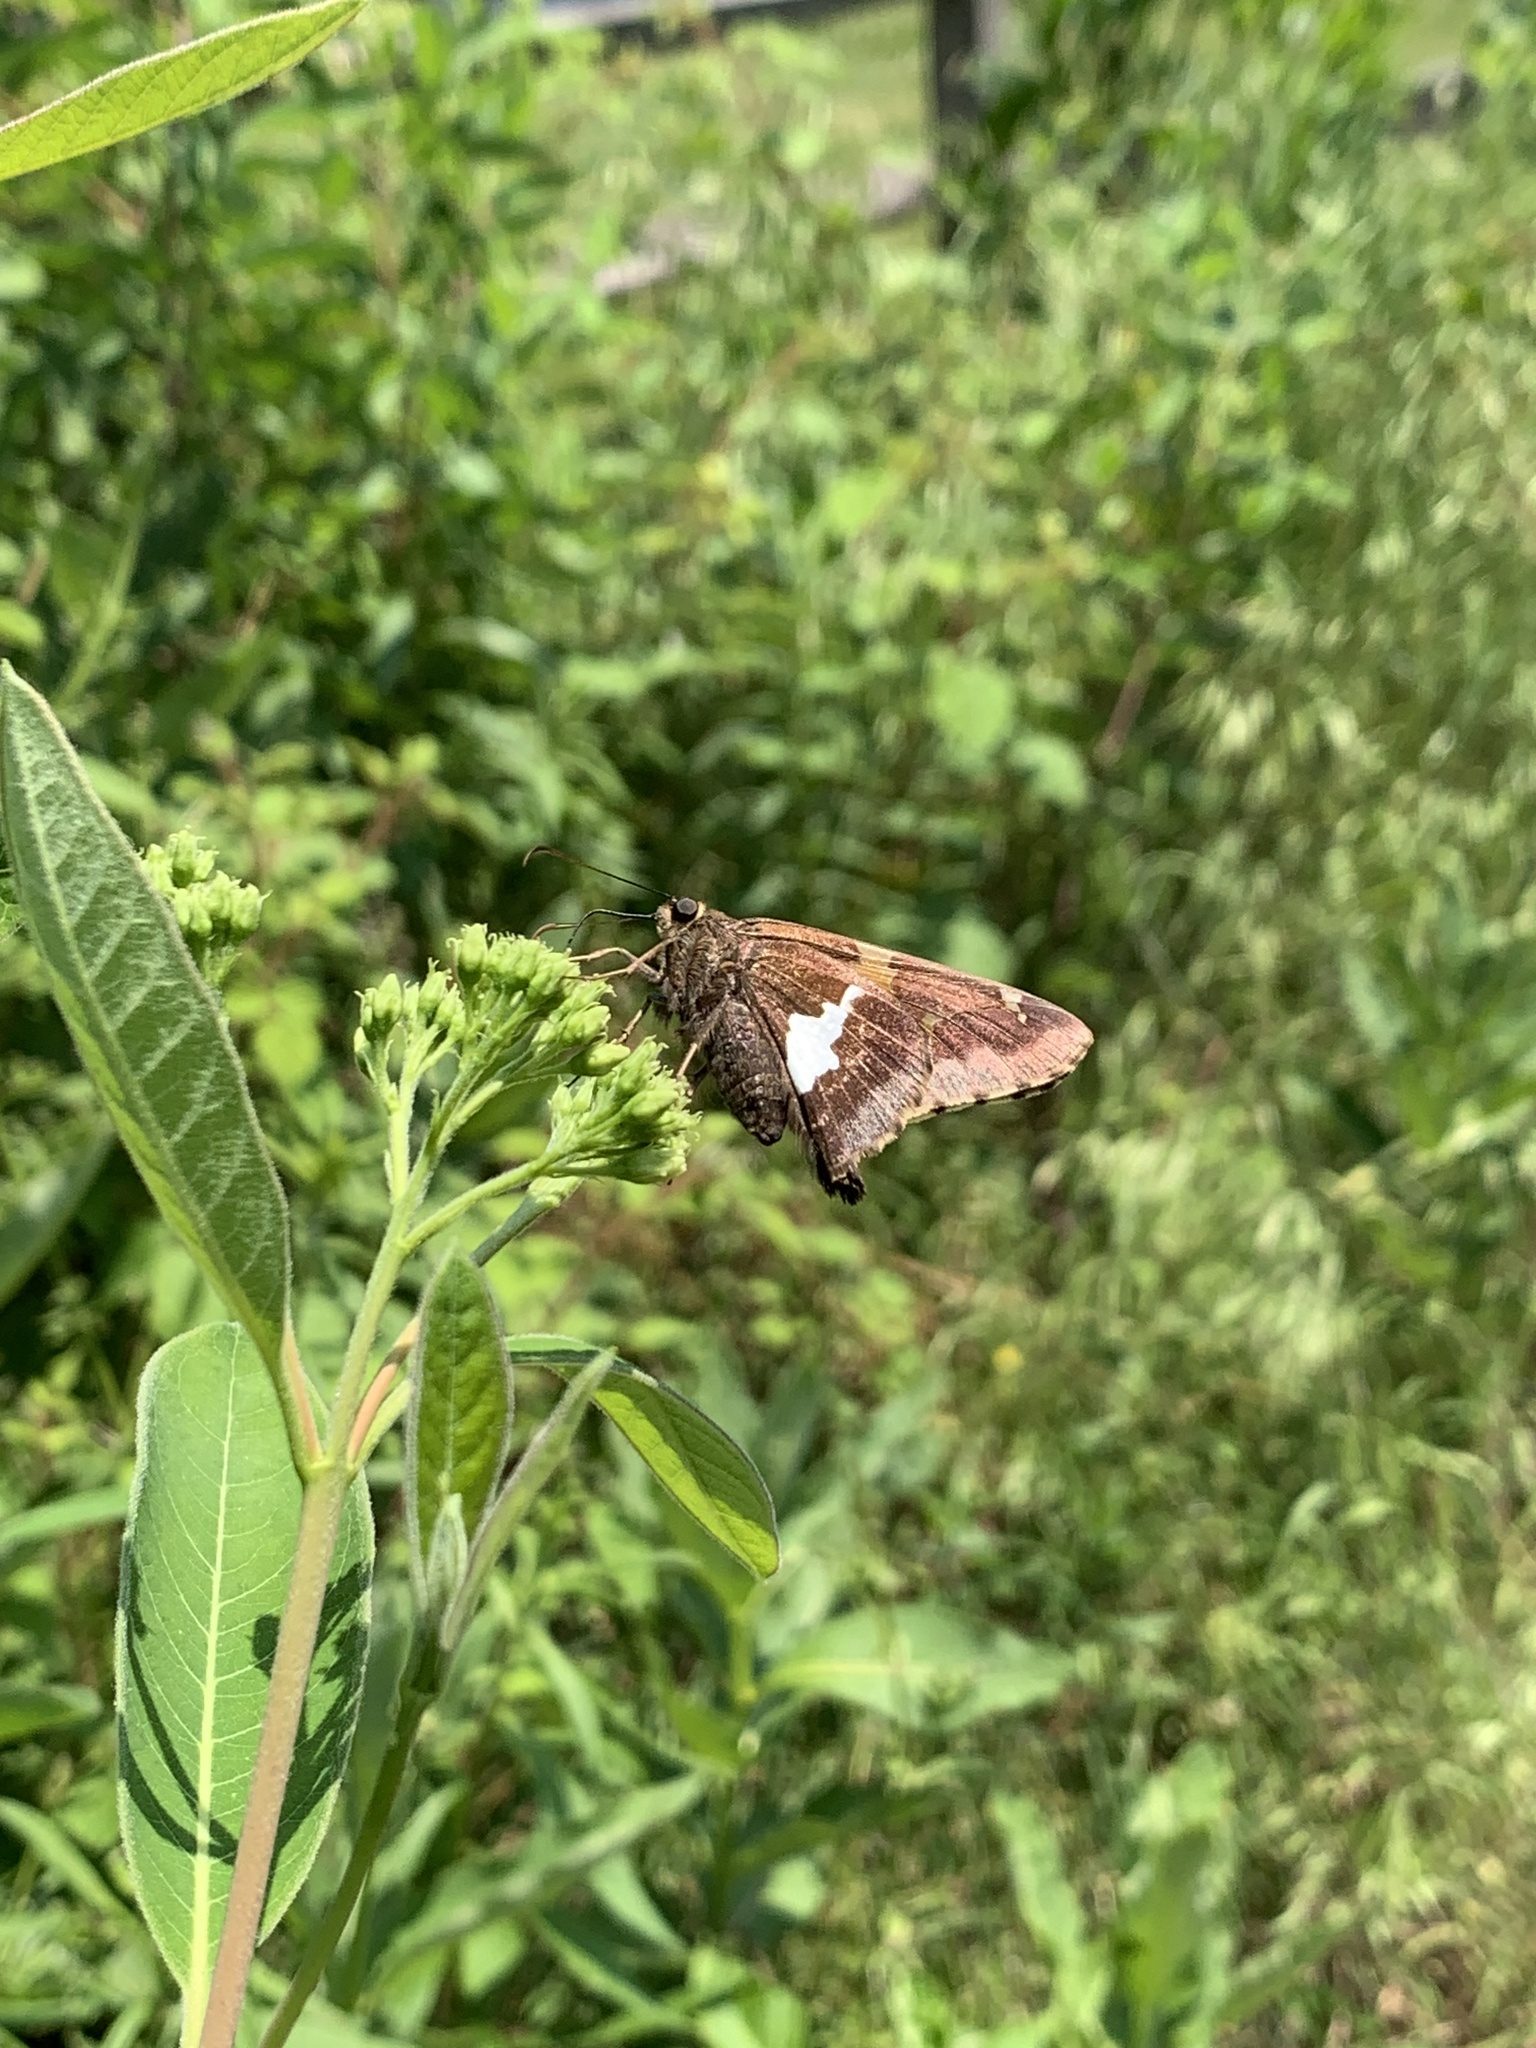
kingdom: Animalia
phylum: Arthropoda
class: Insecta
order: Lepidoptera
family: Hesperiidae
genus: Epargyreus
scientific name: Epargyreus clarus
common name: Silver-spotted skipper
